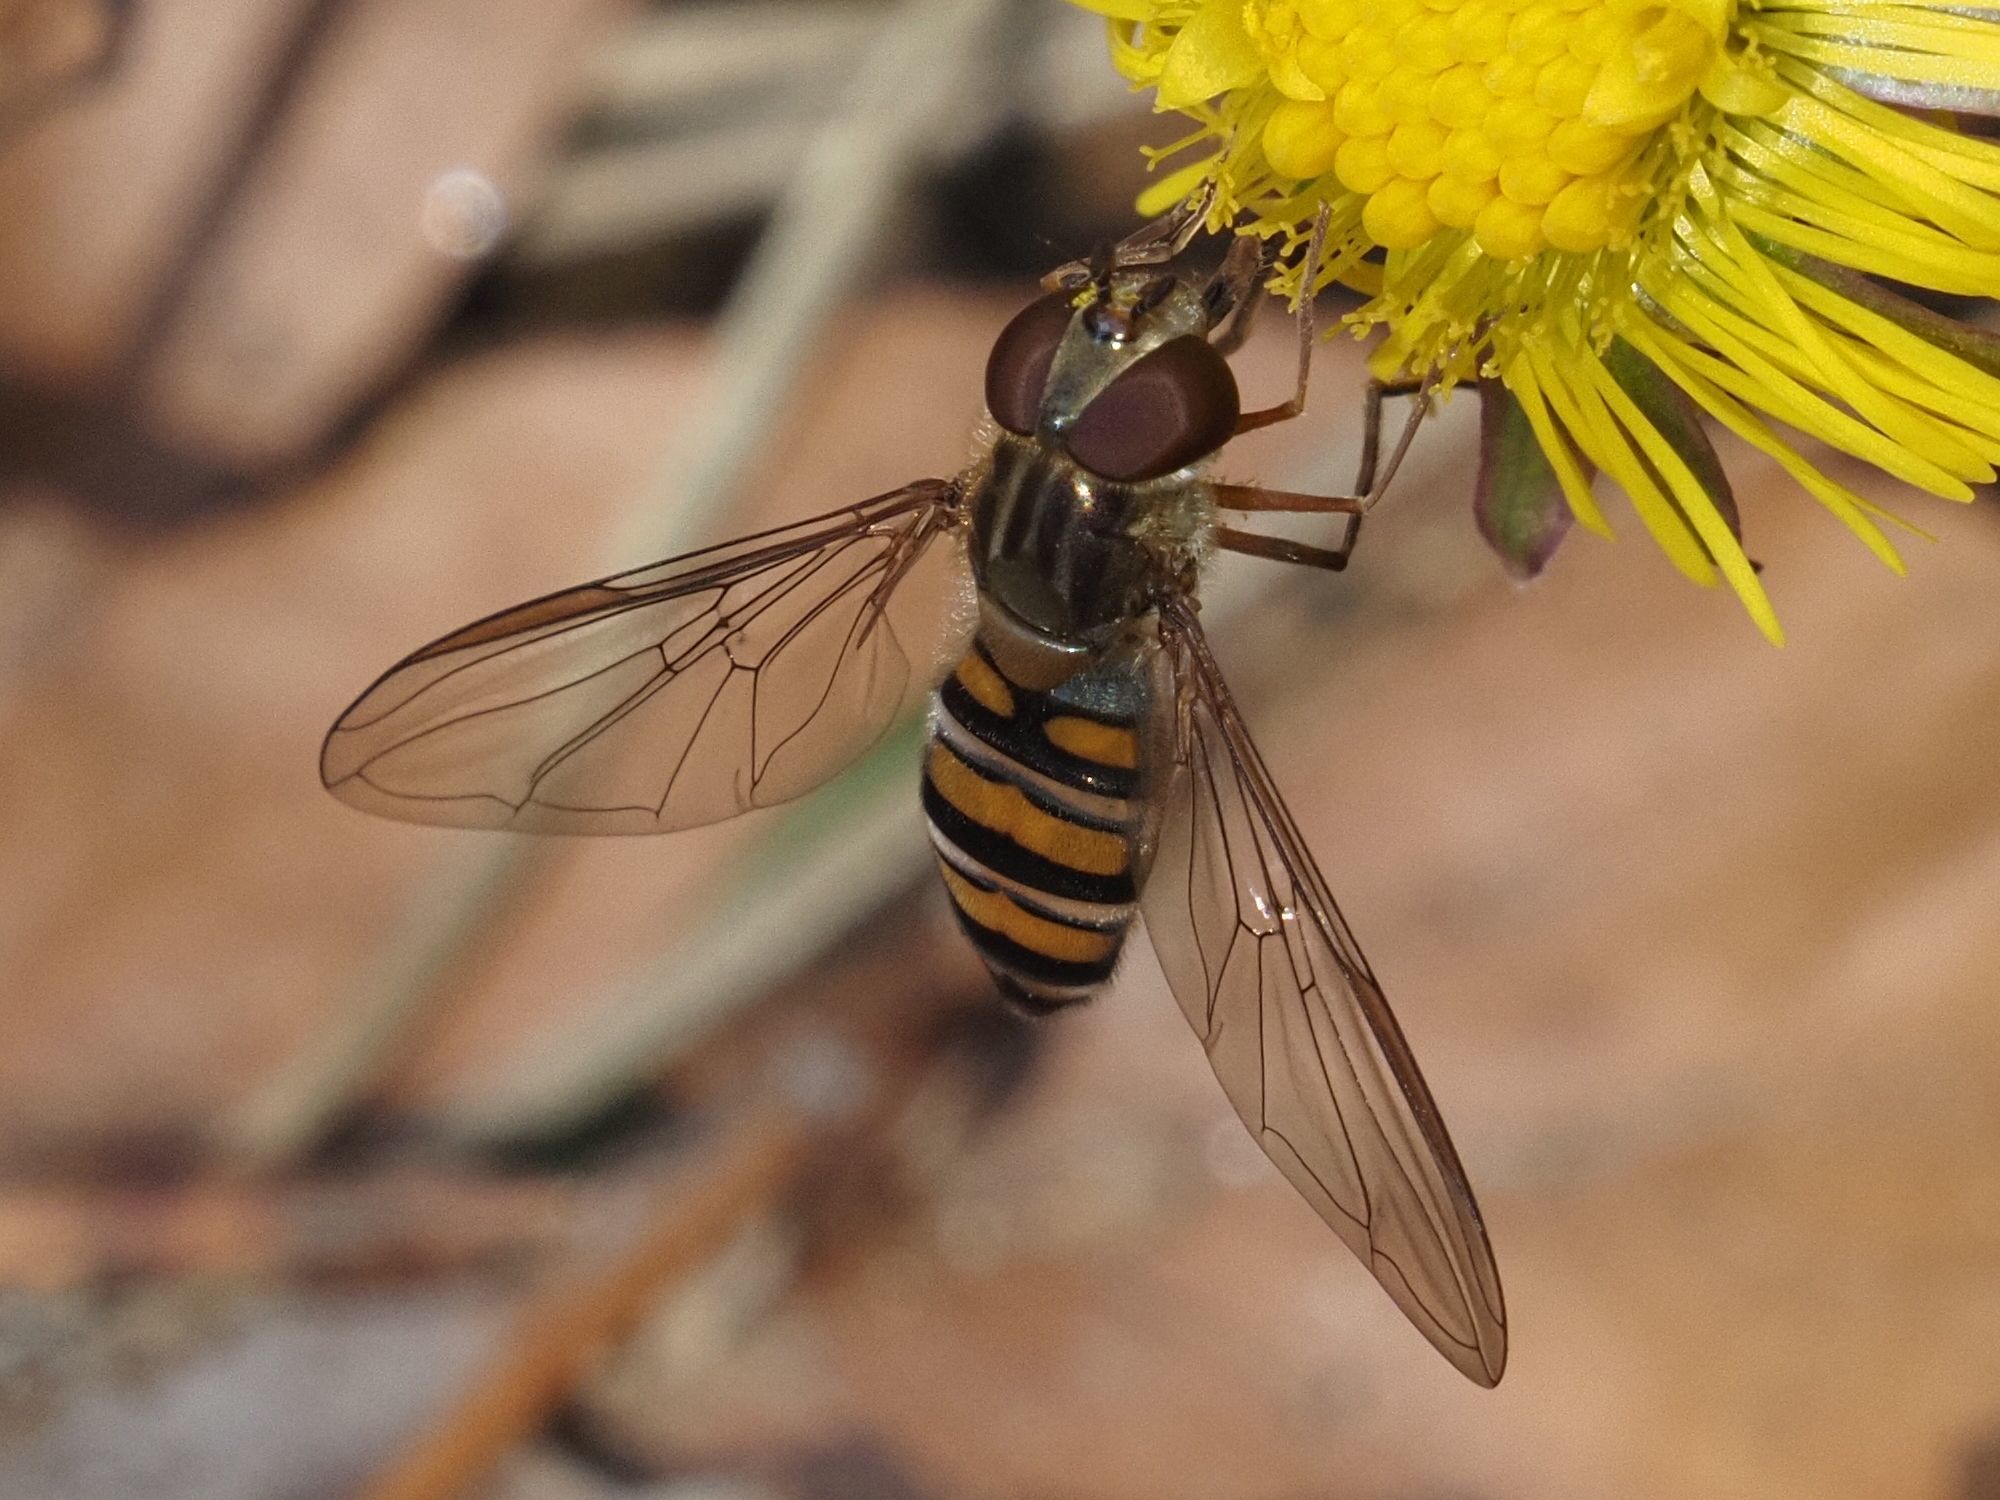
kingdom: Animalia
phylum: Arthropoda
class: Insecta
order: Diptera
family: Syrphidae
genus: Episyrphus
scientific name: Episyrphus balteatus
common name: Marmalade hoverfly
